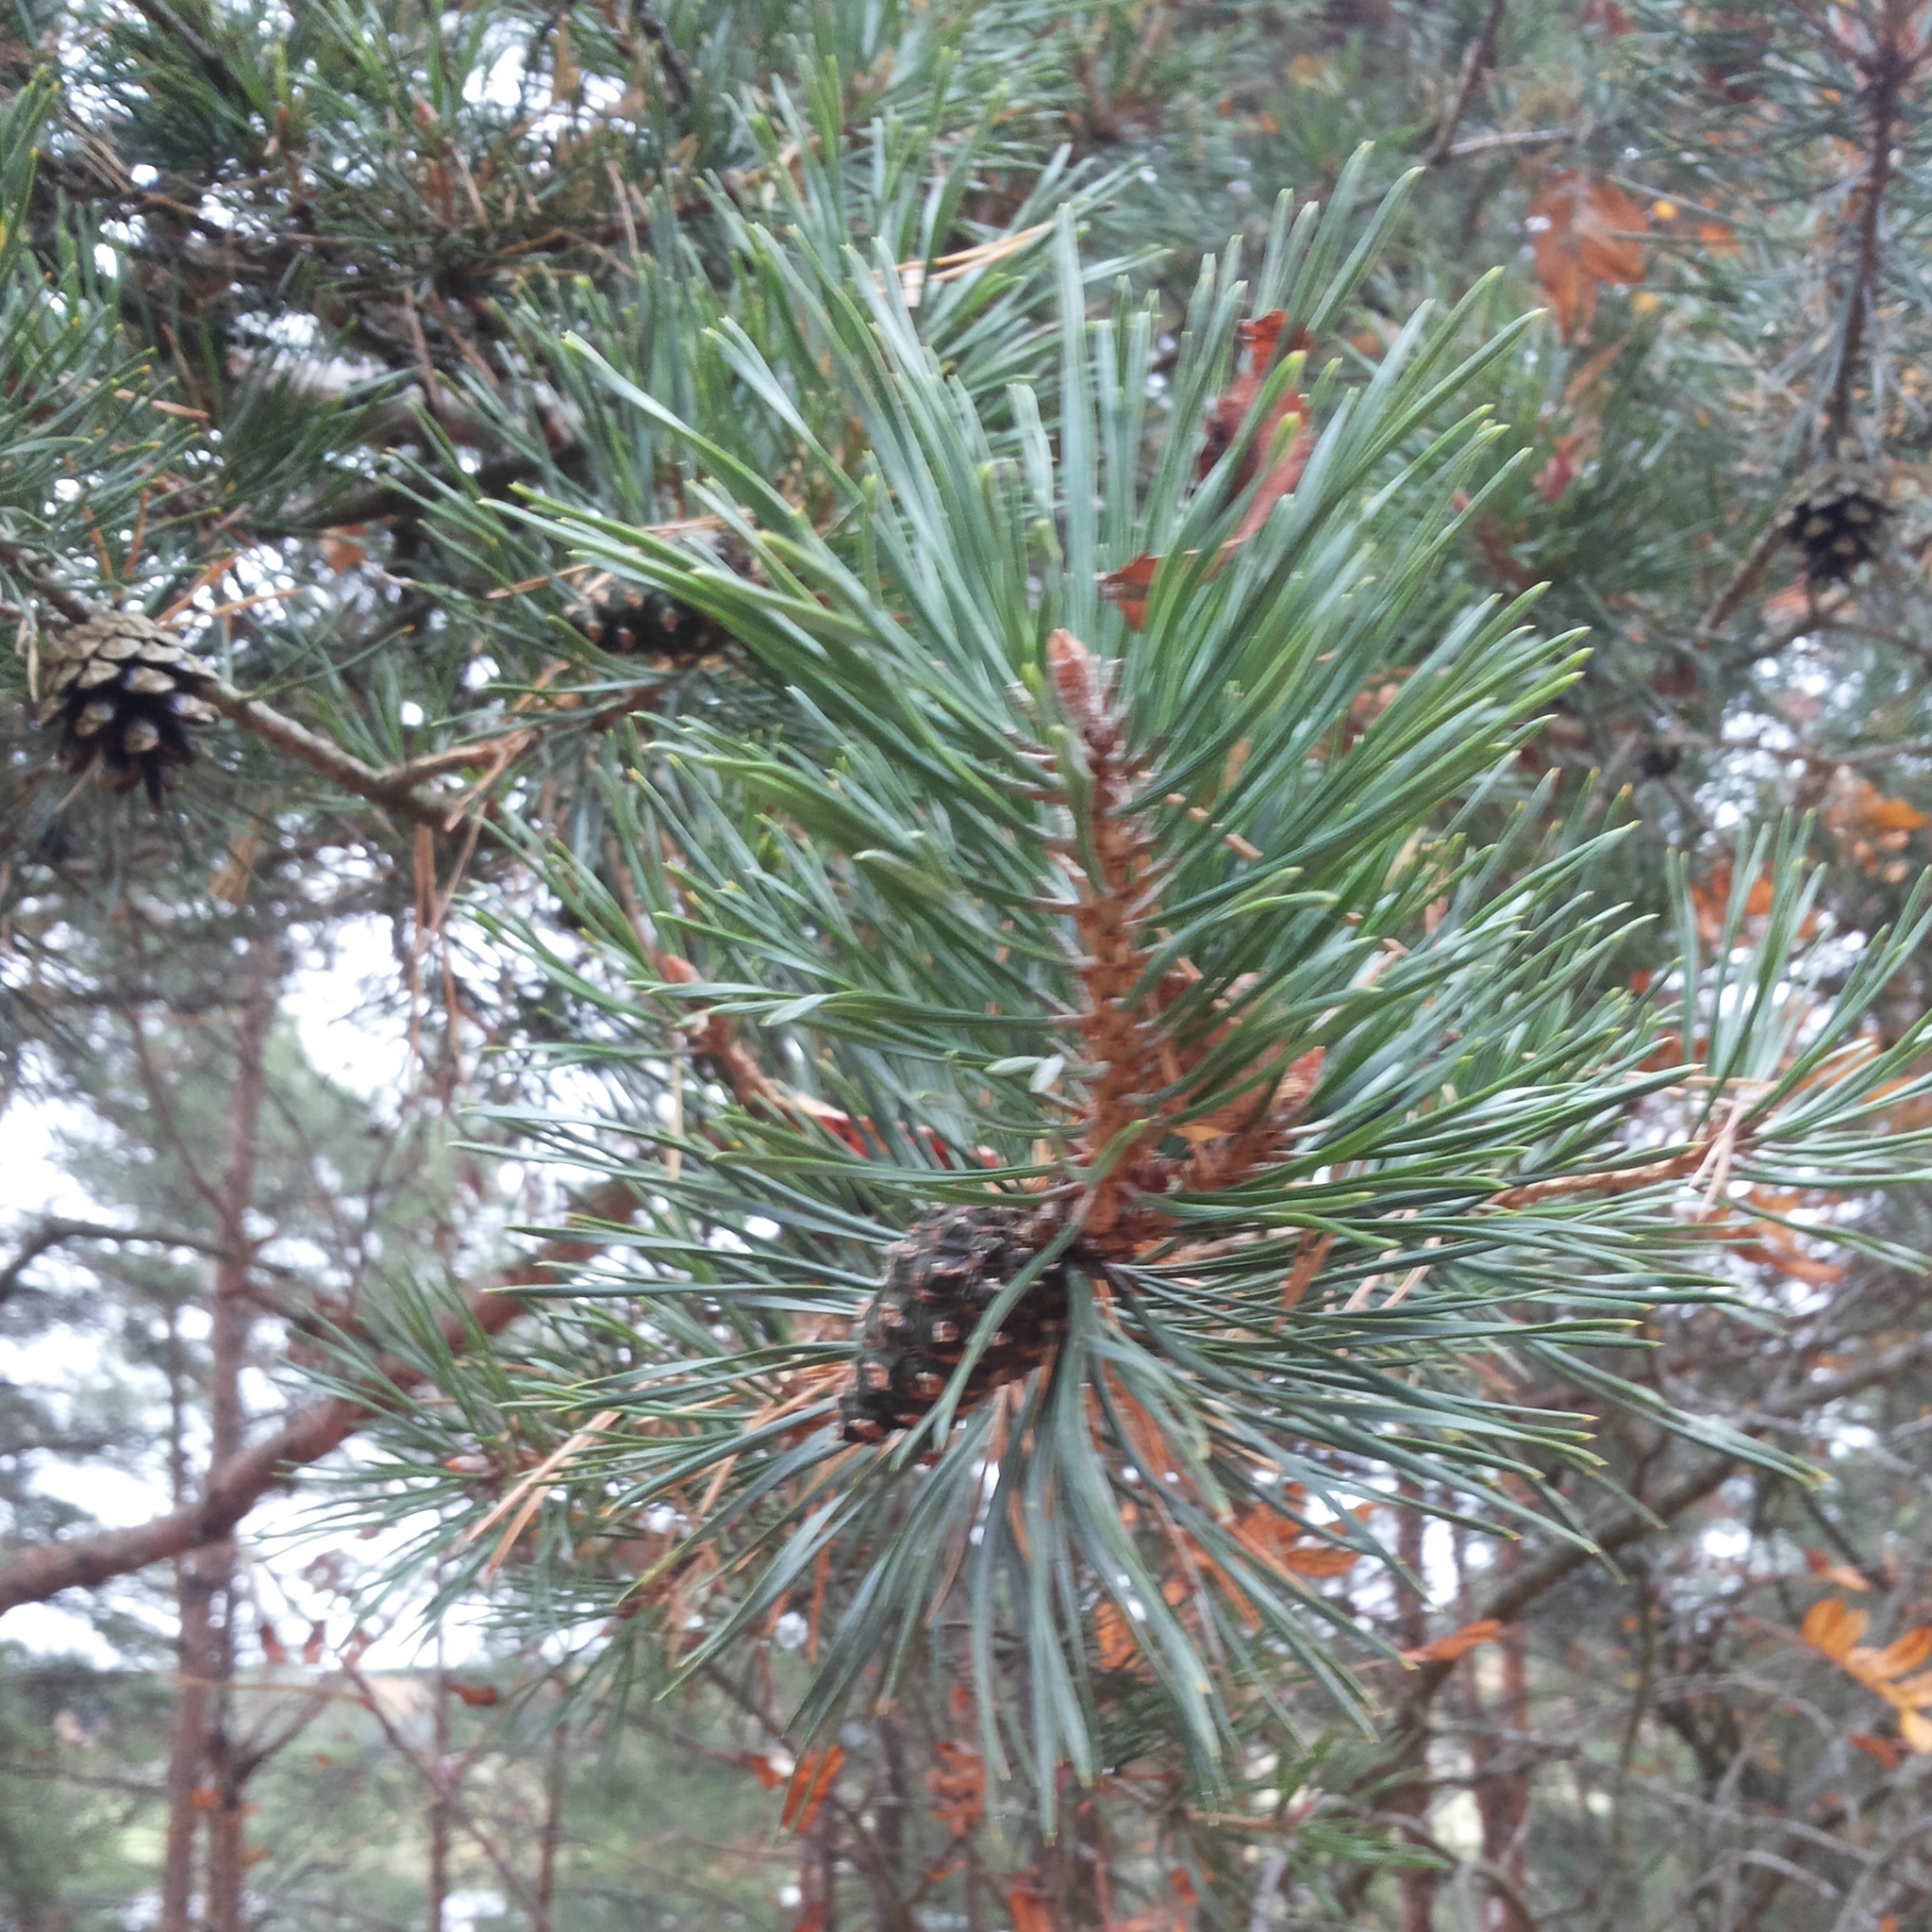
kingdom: Plantae
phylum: Tracheophyta
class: Pinopsida
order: Pinales
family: Pinaceae
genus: Pinus
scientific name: Pinus sylvestris
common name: Scots pine
